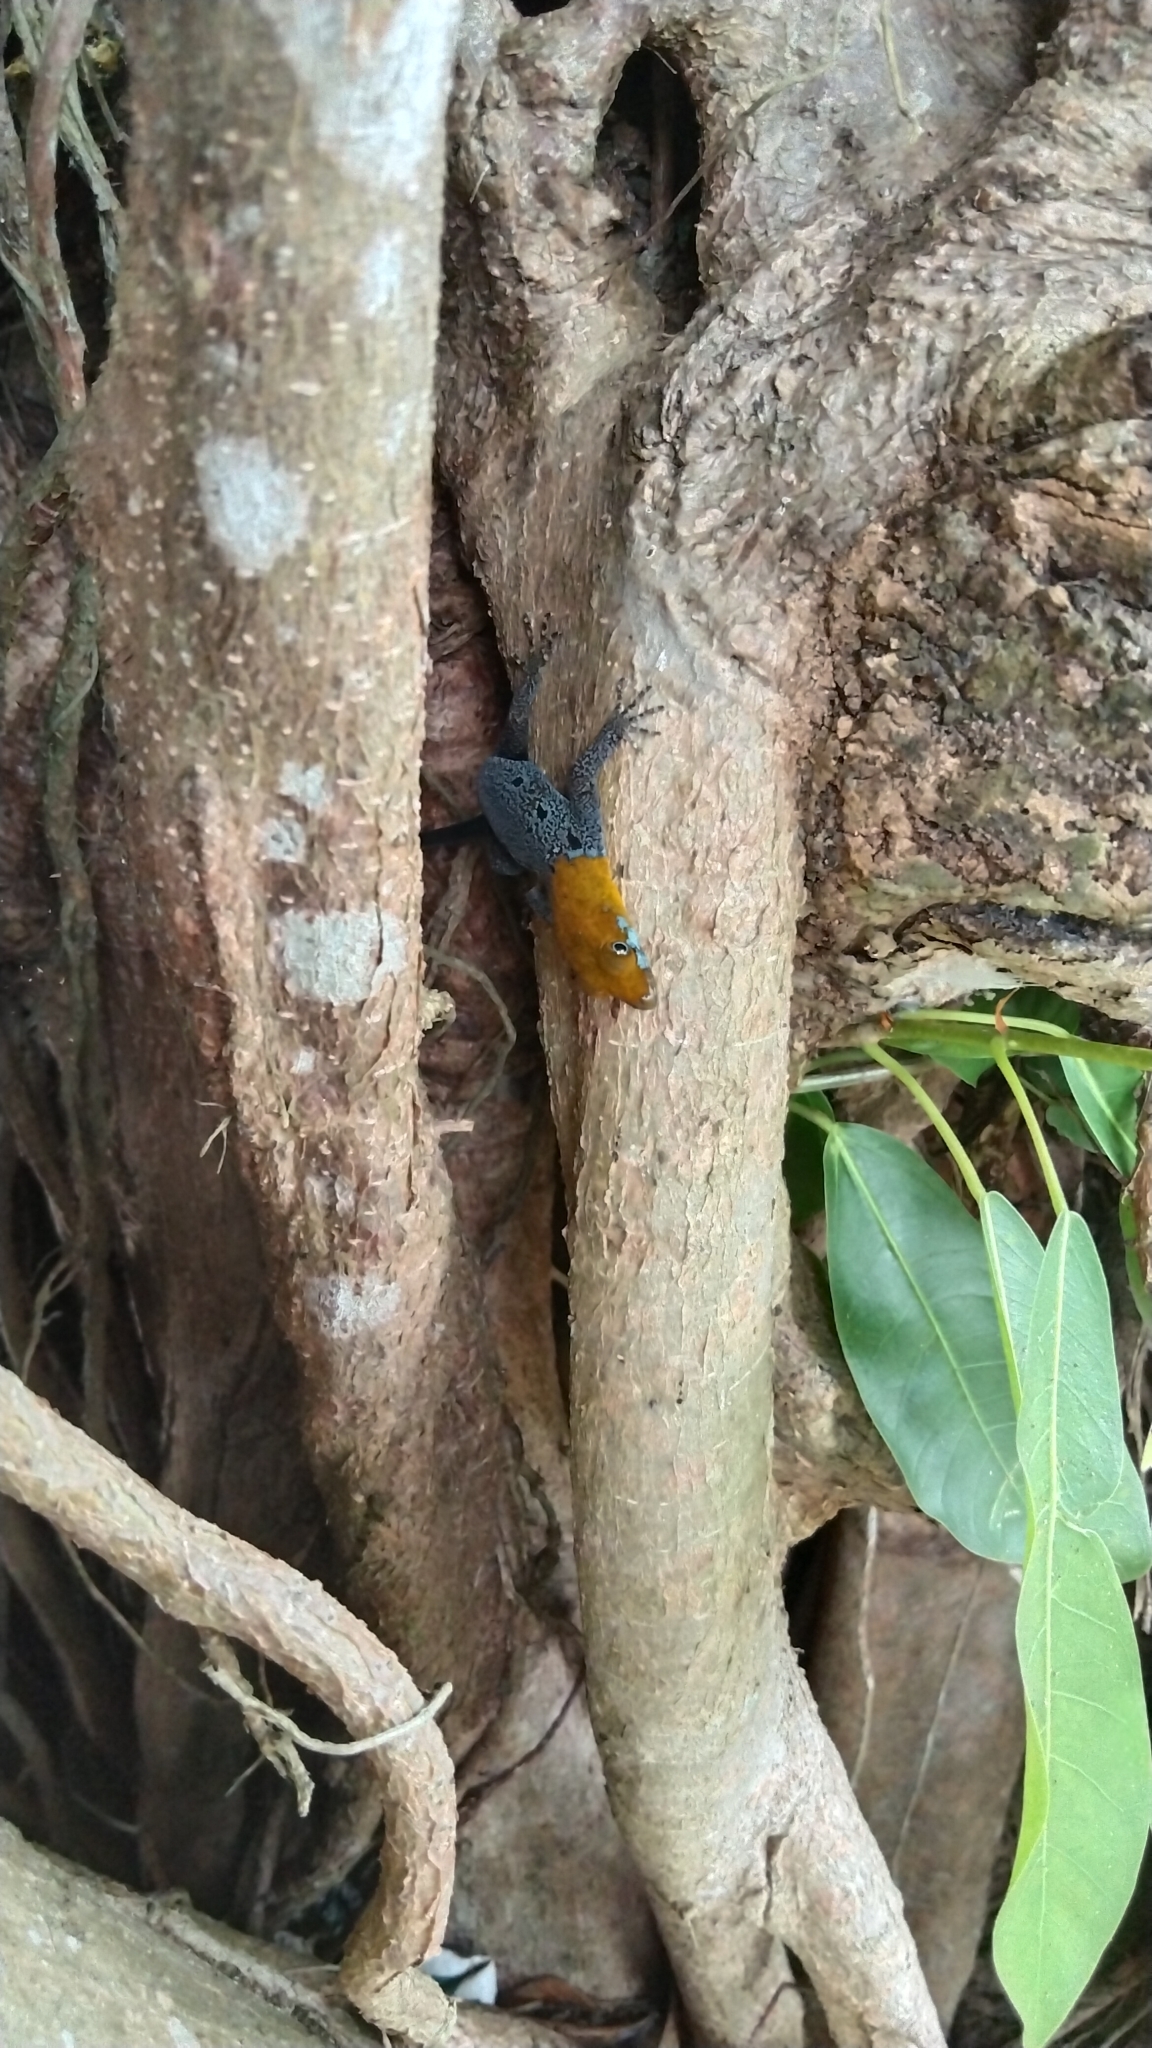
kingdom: Animalia
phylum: Chordata
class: Squamata
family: Sphaerodactylidae
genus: Gonatodes
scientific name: Gonatodes albogularis
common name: Yellow-headed gecko
